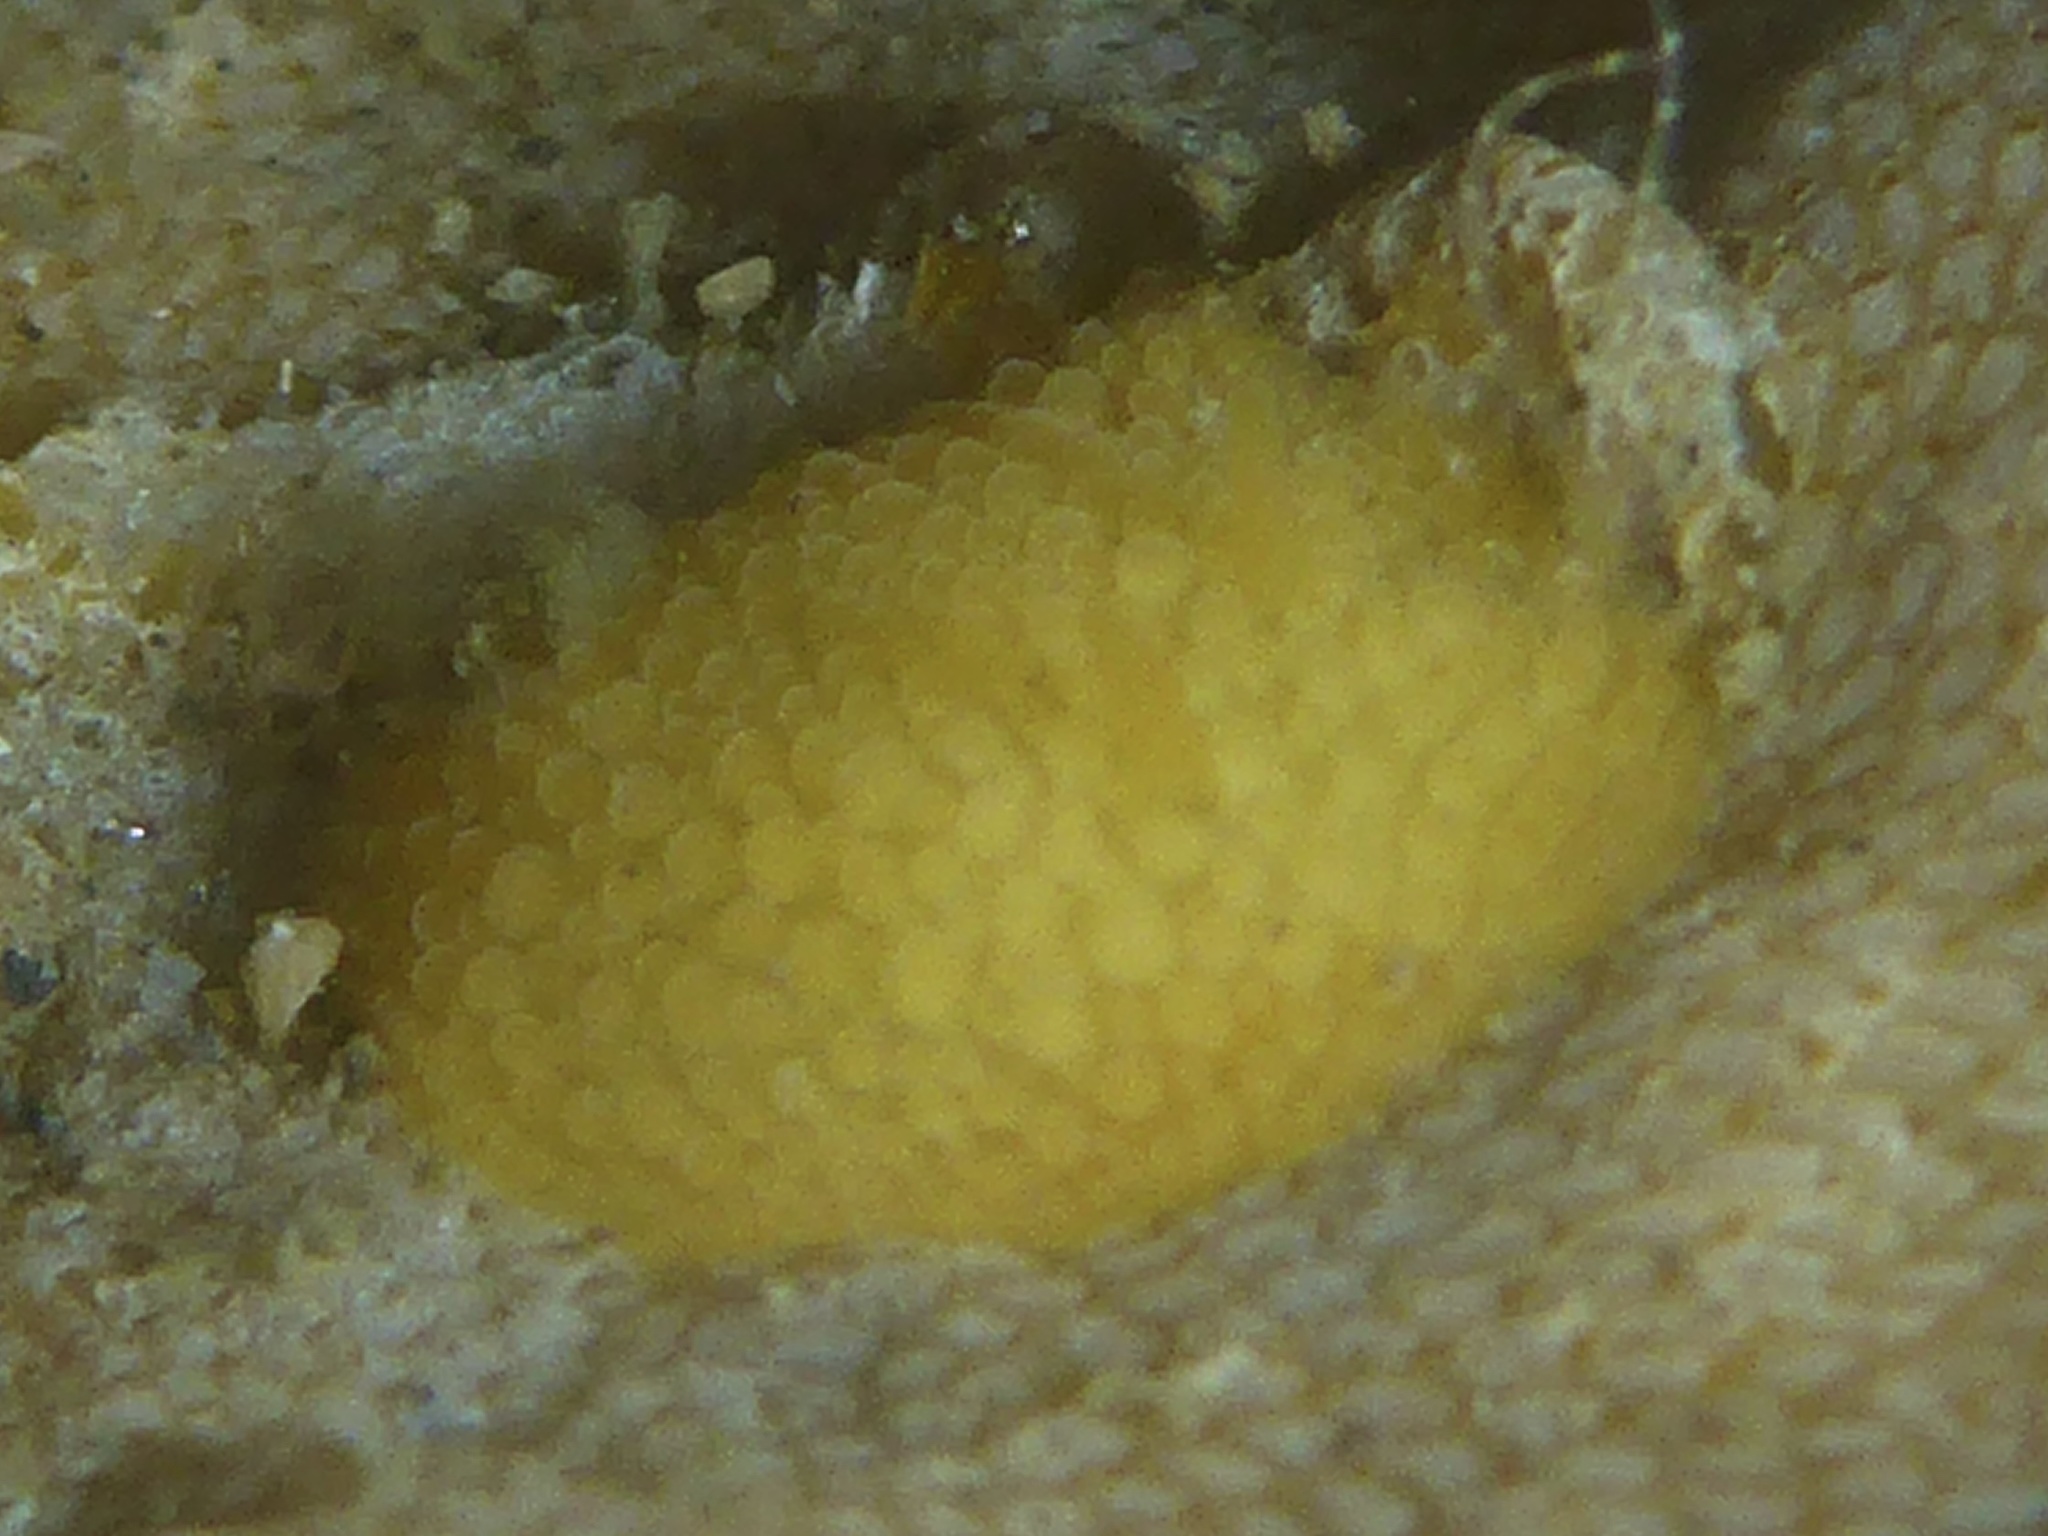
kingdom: Animalia
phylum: Mollusca
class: Gastropoda
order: Nudibranchia
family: Onchidorididae
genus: Atalodoris
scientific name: Atalodoris jannae
